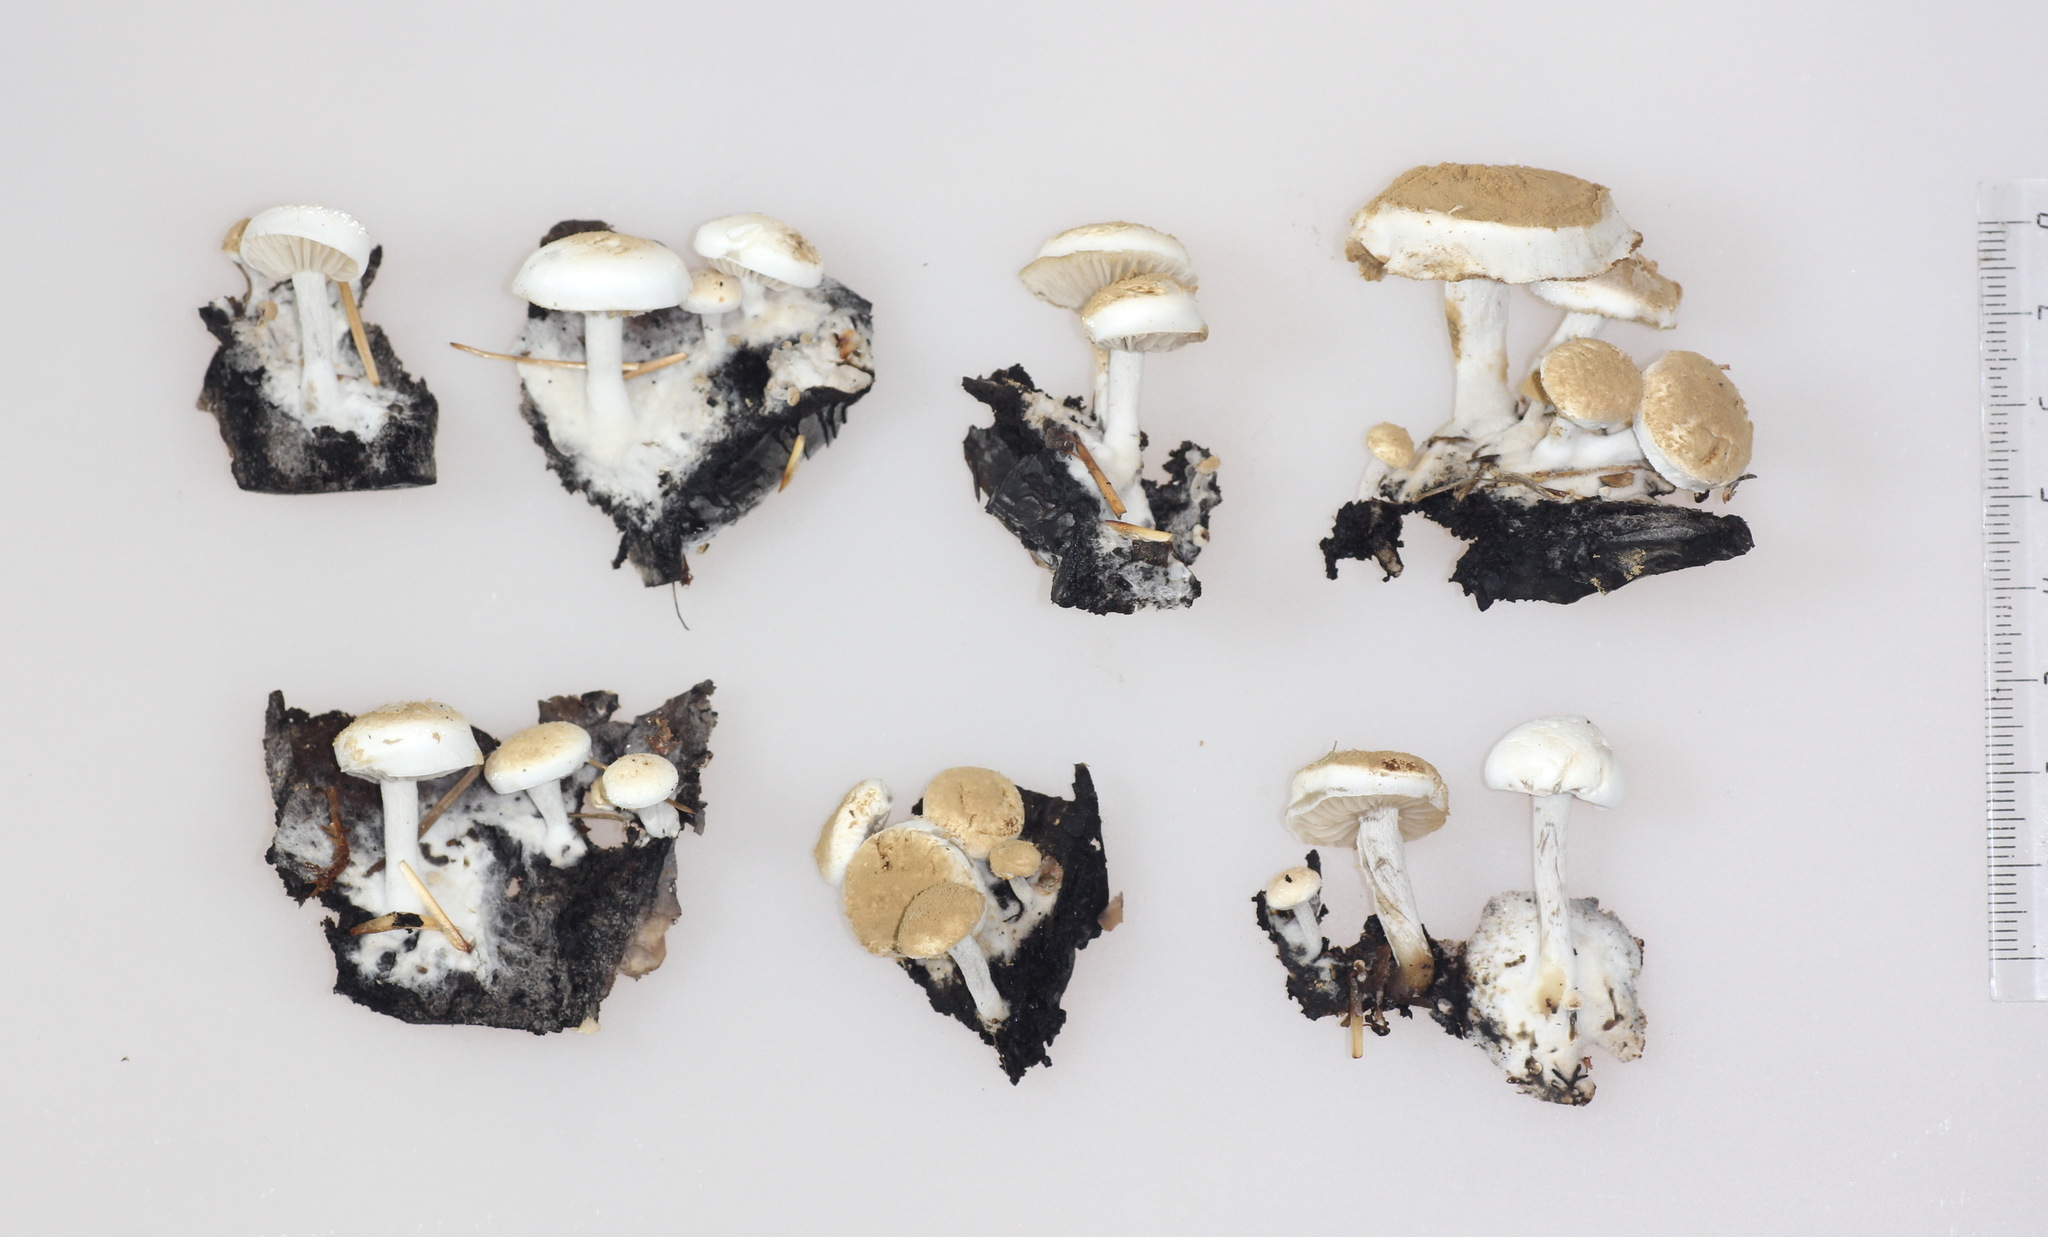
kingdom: Fungi
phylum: Basidiomycota
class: Agaricomycetes
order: Agaricales
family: Lyophyllaceae
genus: Asterophora
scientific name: Asterophora lycoperdoides
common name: Pick-a-back toadstool
